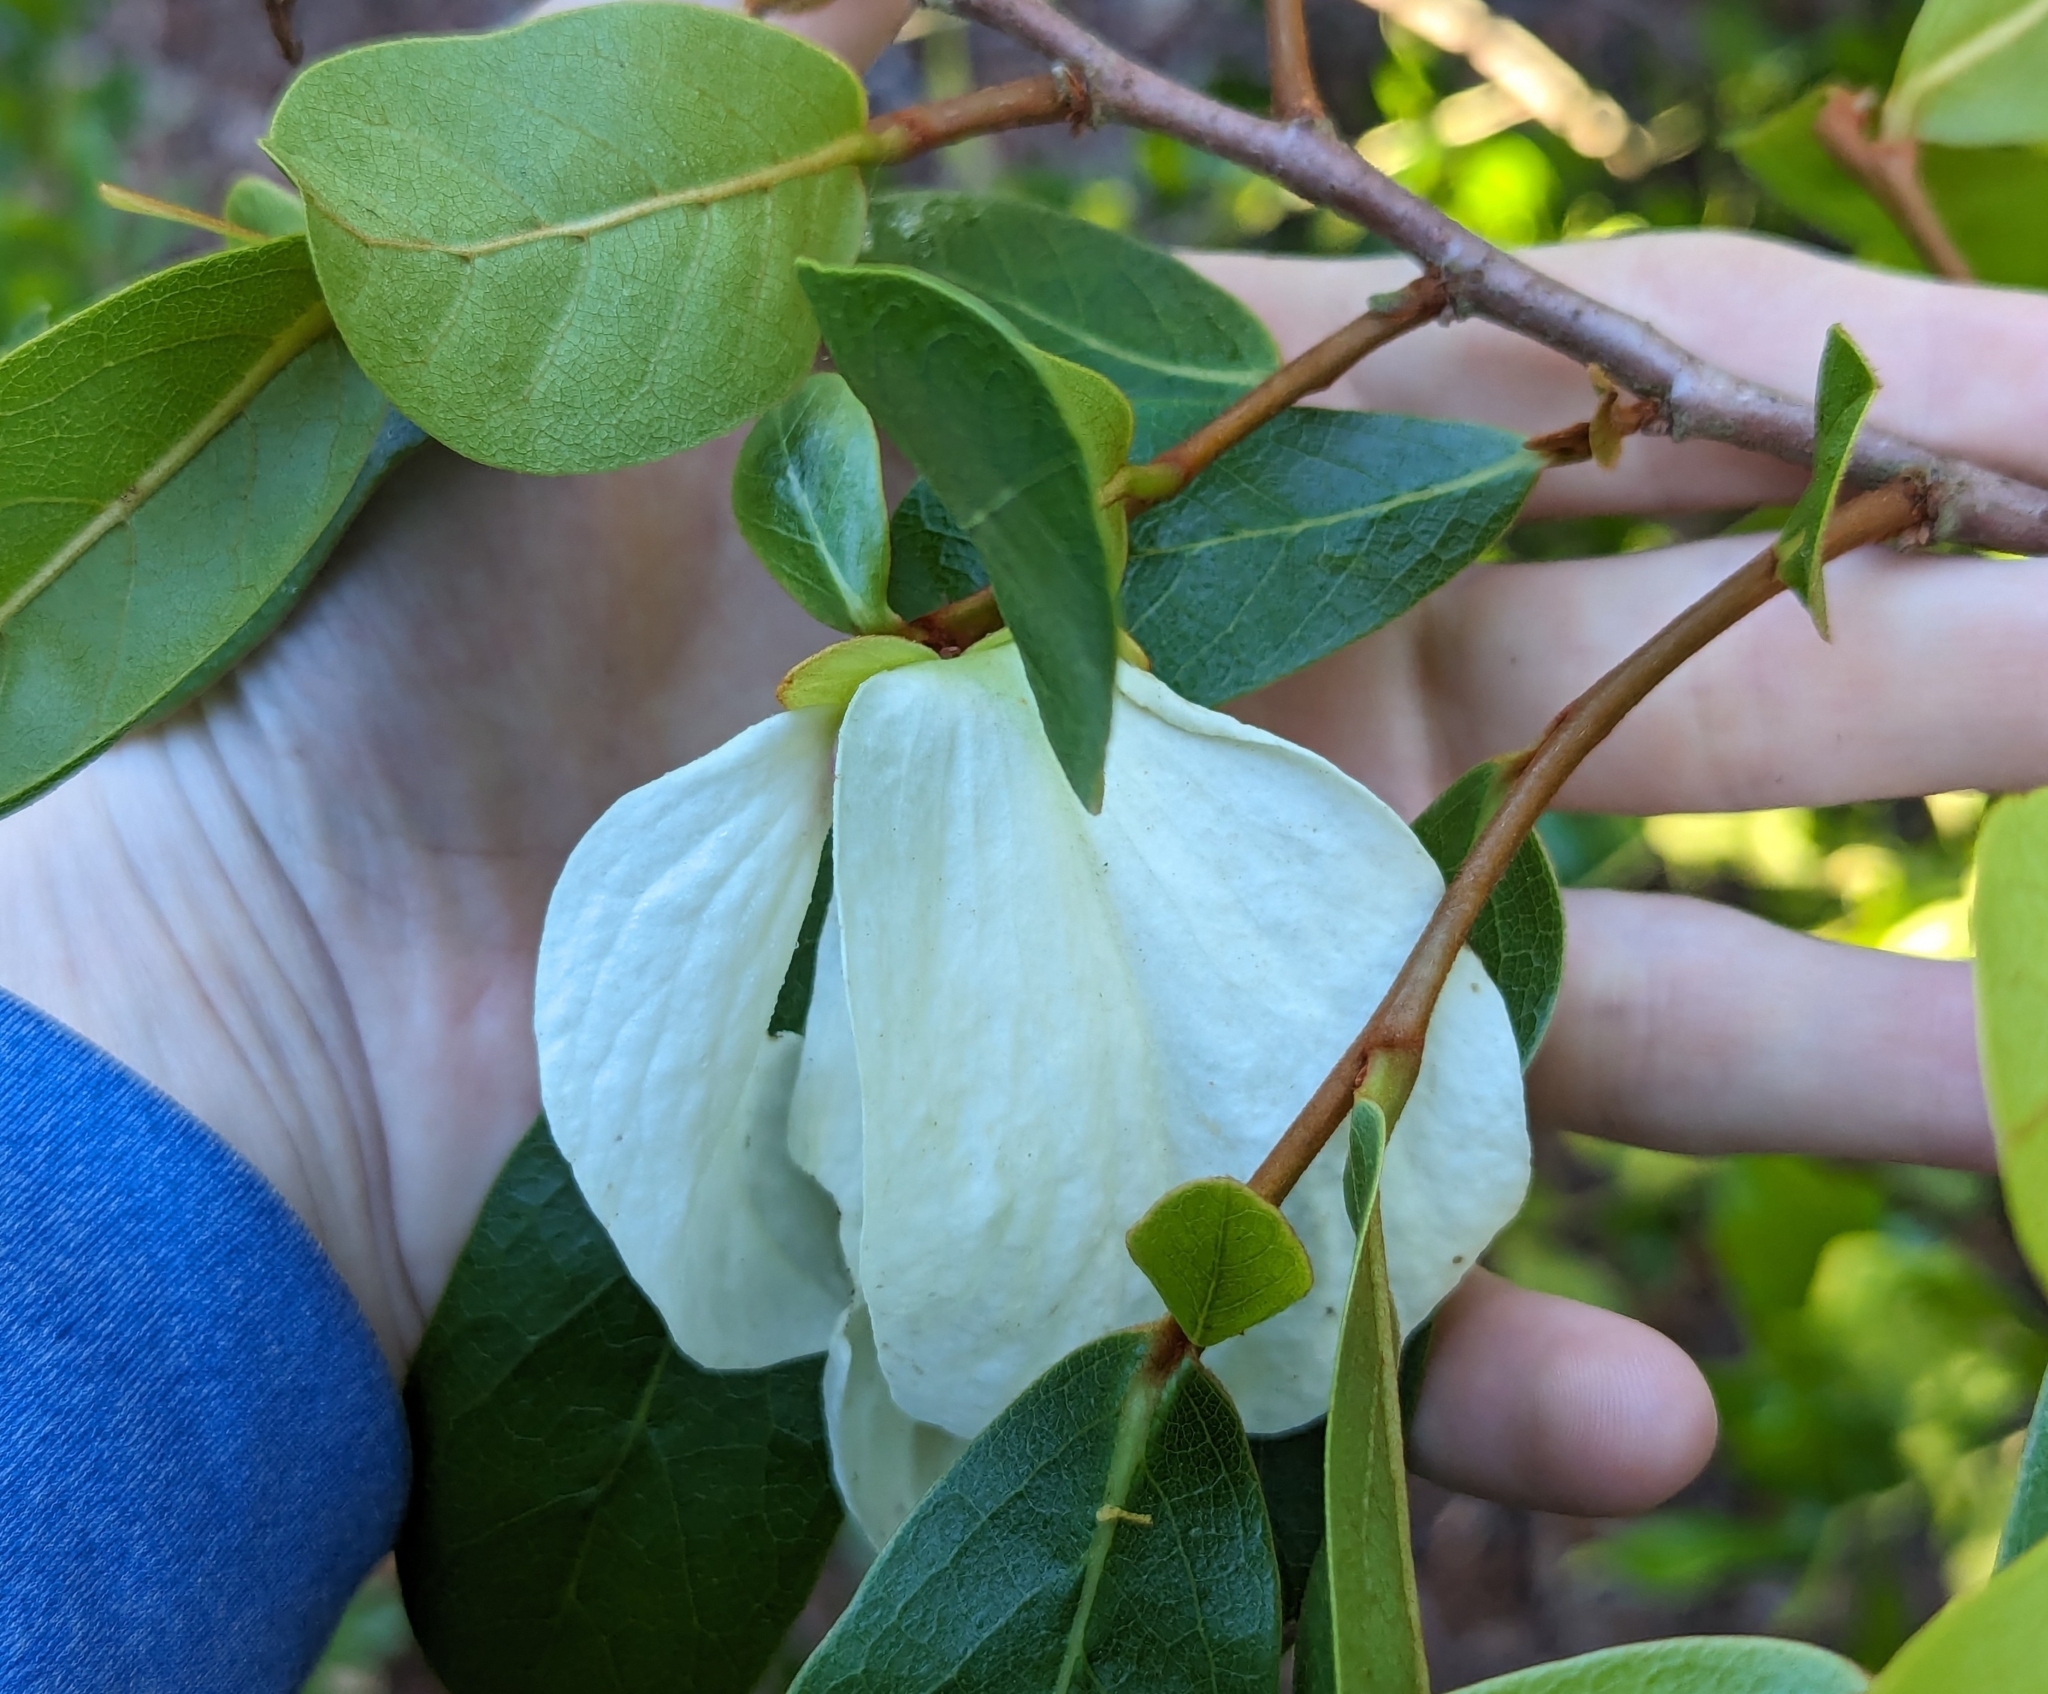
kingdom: Plantae
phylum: Tracheophyta
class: Magnoliopsida
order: Magnoliales
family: Annonaceae
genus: Asimina
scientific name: Asimina obovata
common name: Flag pawpaw
